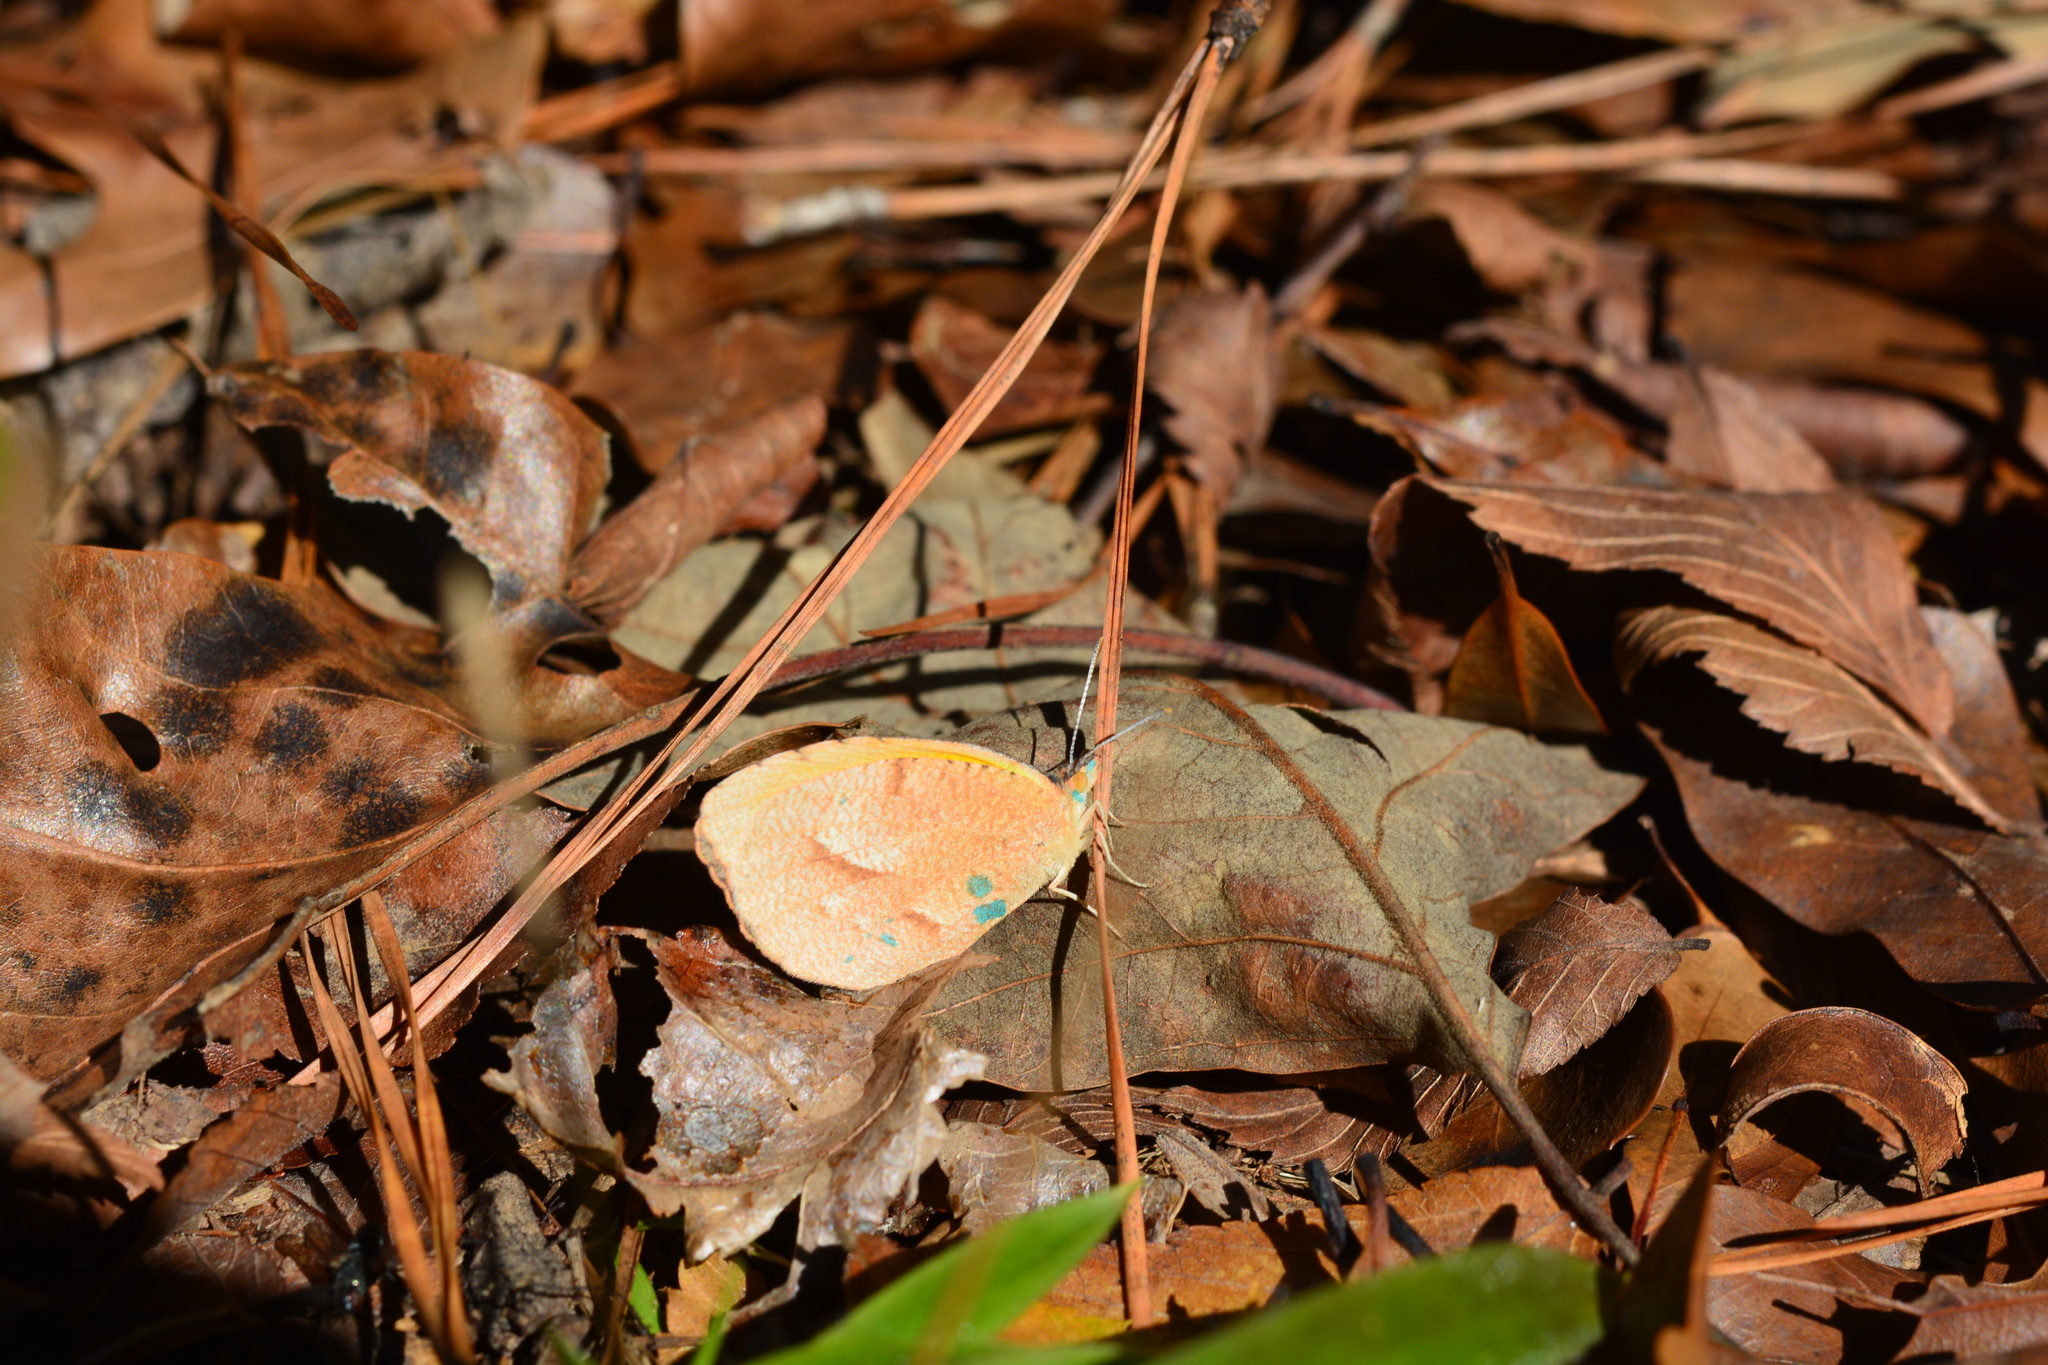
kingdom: Animalia
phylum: Arthropoda
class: Insecta
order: Lepidoptera
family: Pieridae
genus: Abaeis
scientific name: Abaeis nicippe
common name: Sleepy orange
